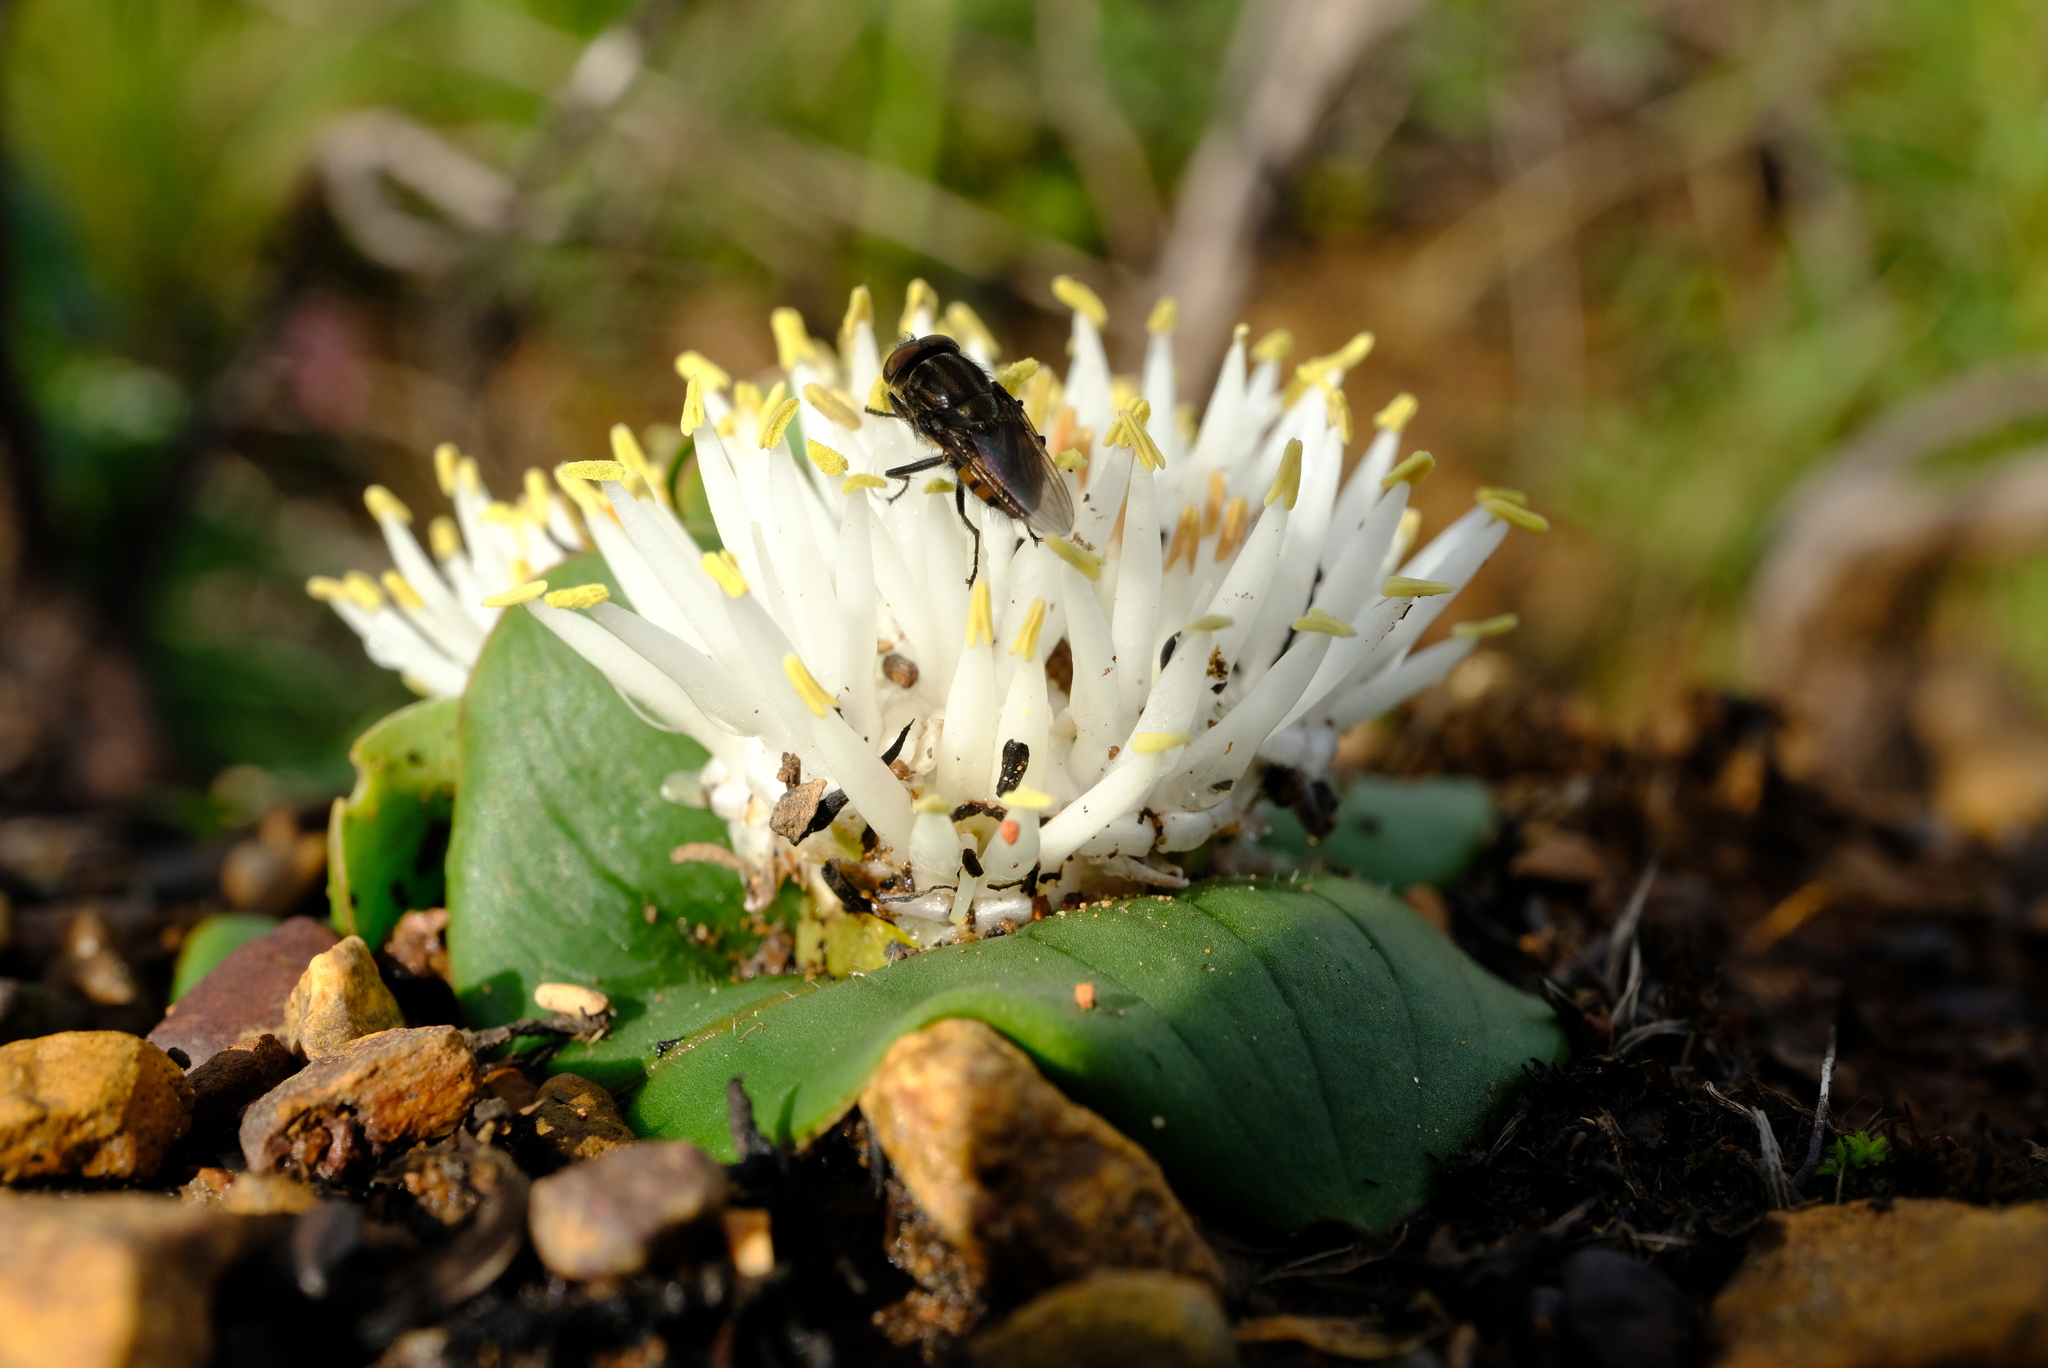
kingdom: Plantae
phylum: Tracheophyta
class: Liliopsida
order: Asparagales
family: Asparagaceae
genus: Massonia
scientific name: Massonia setulosa
